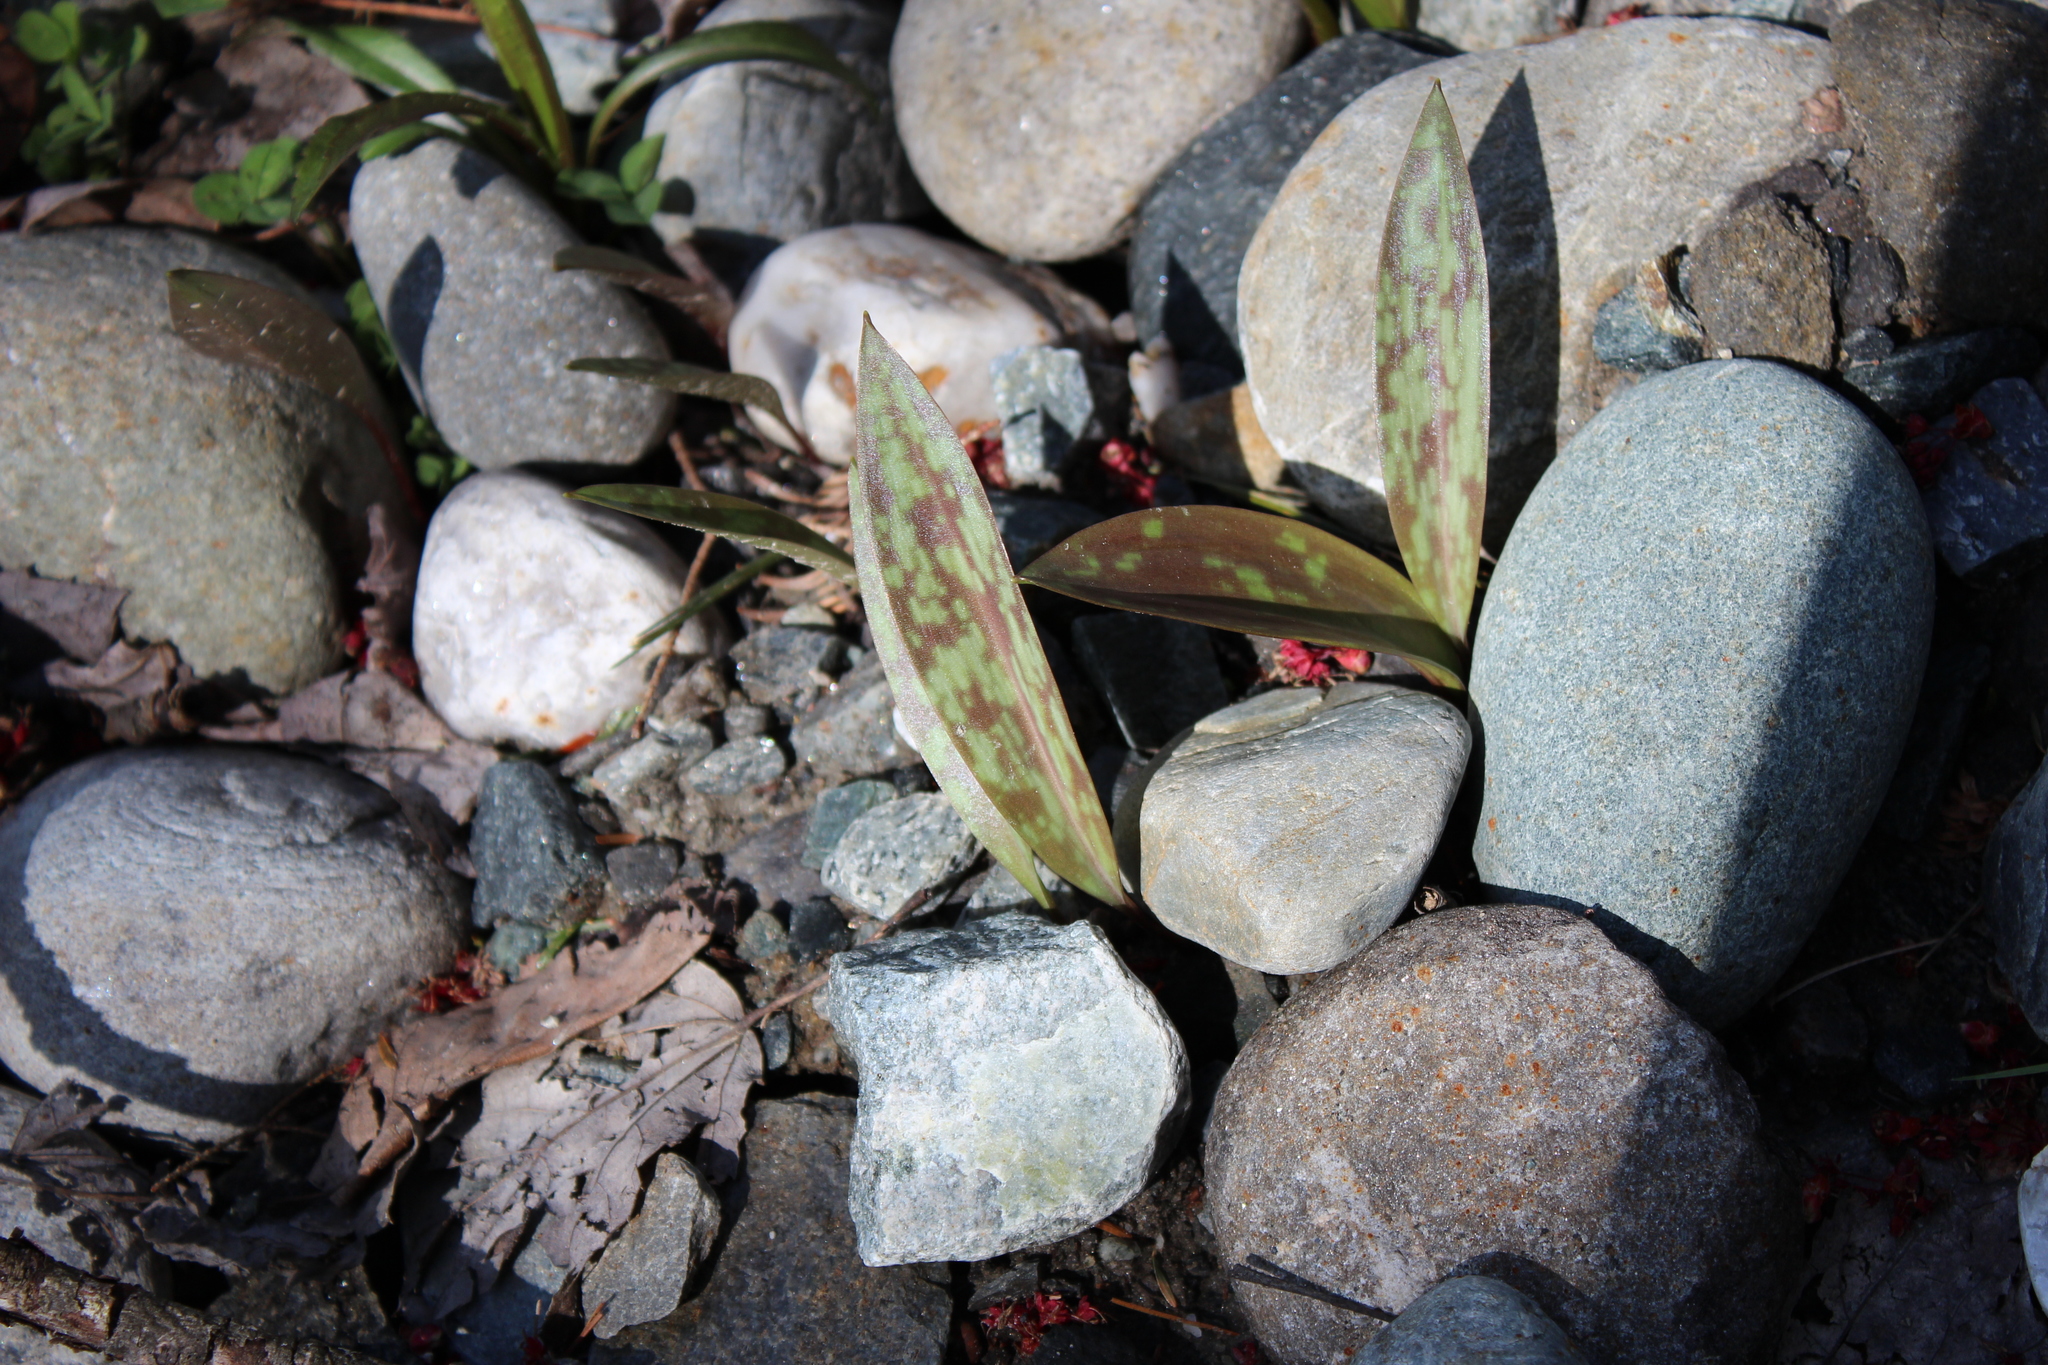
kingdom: Plantae
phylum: Tracheophyta
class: Liliopsida
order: Liliales
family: Liliaceae
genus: Erythronium
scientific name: Erythronium americanum
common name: Yellow adder's-tongue
